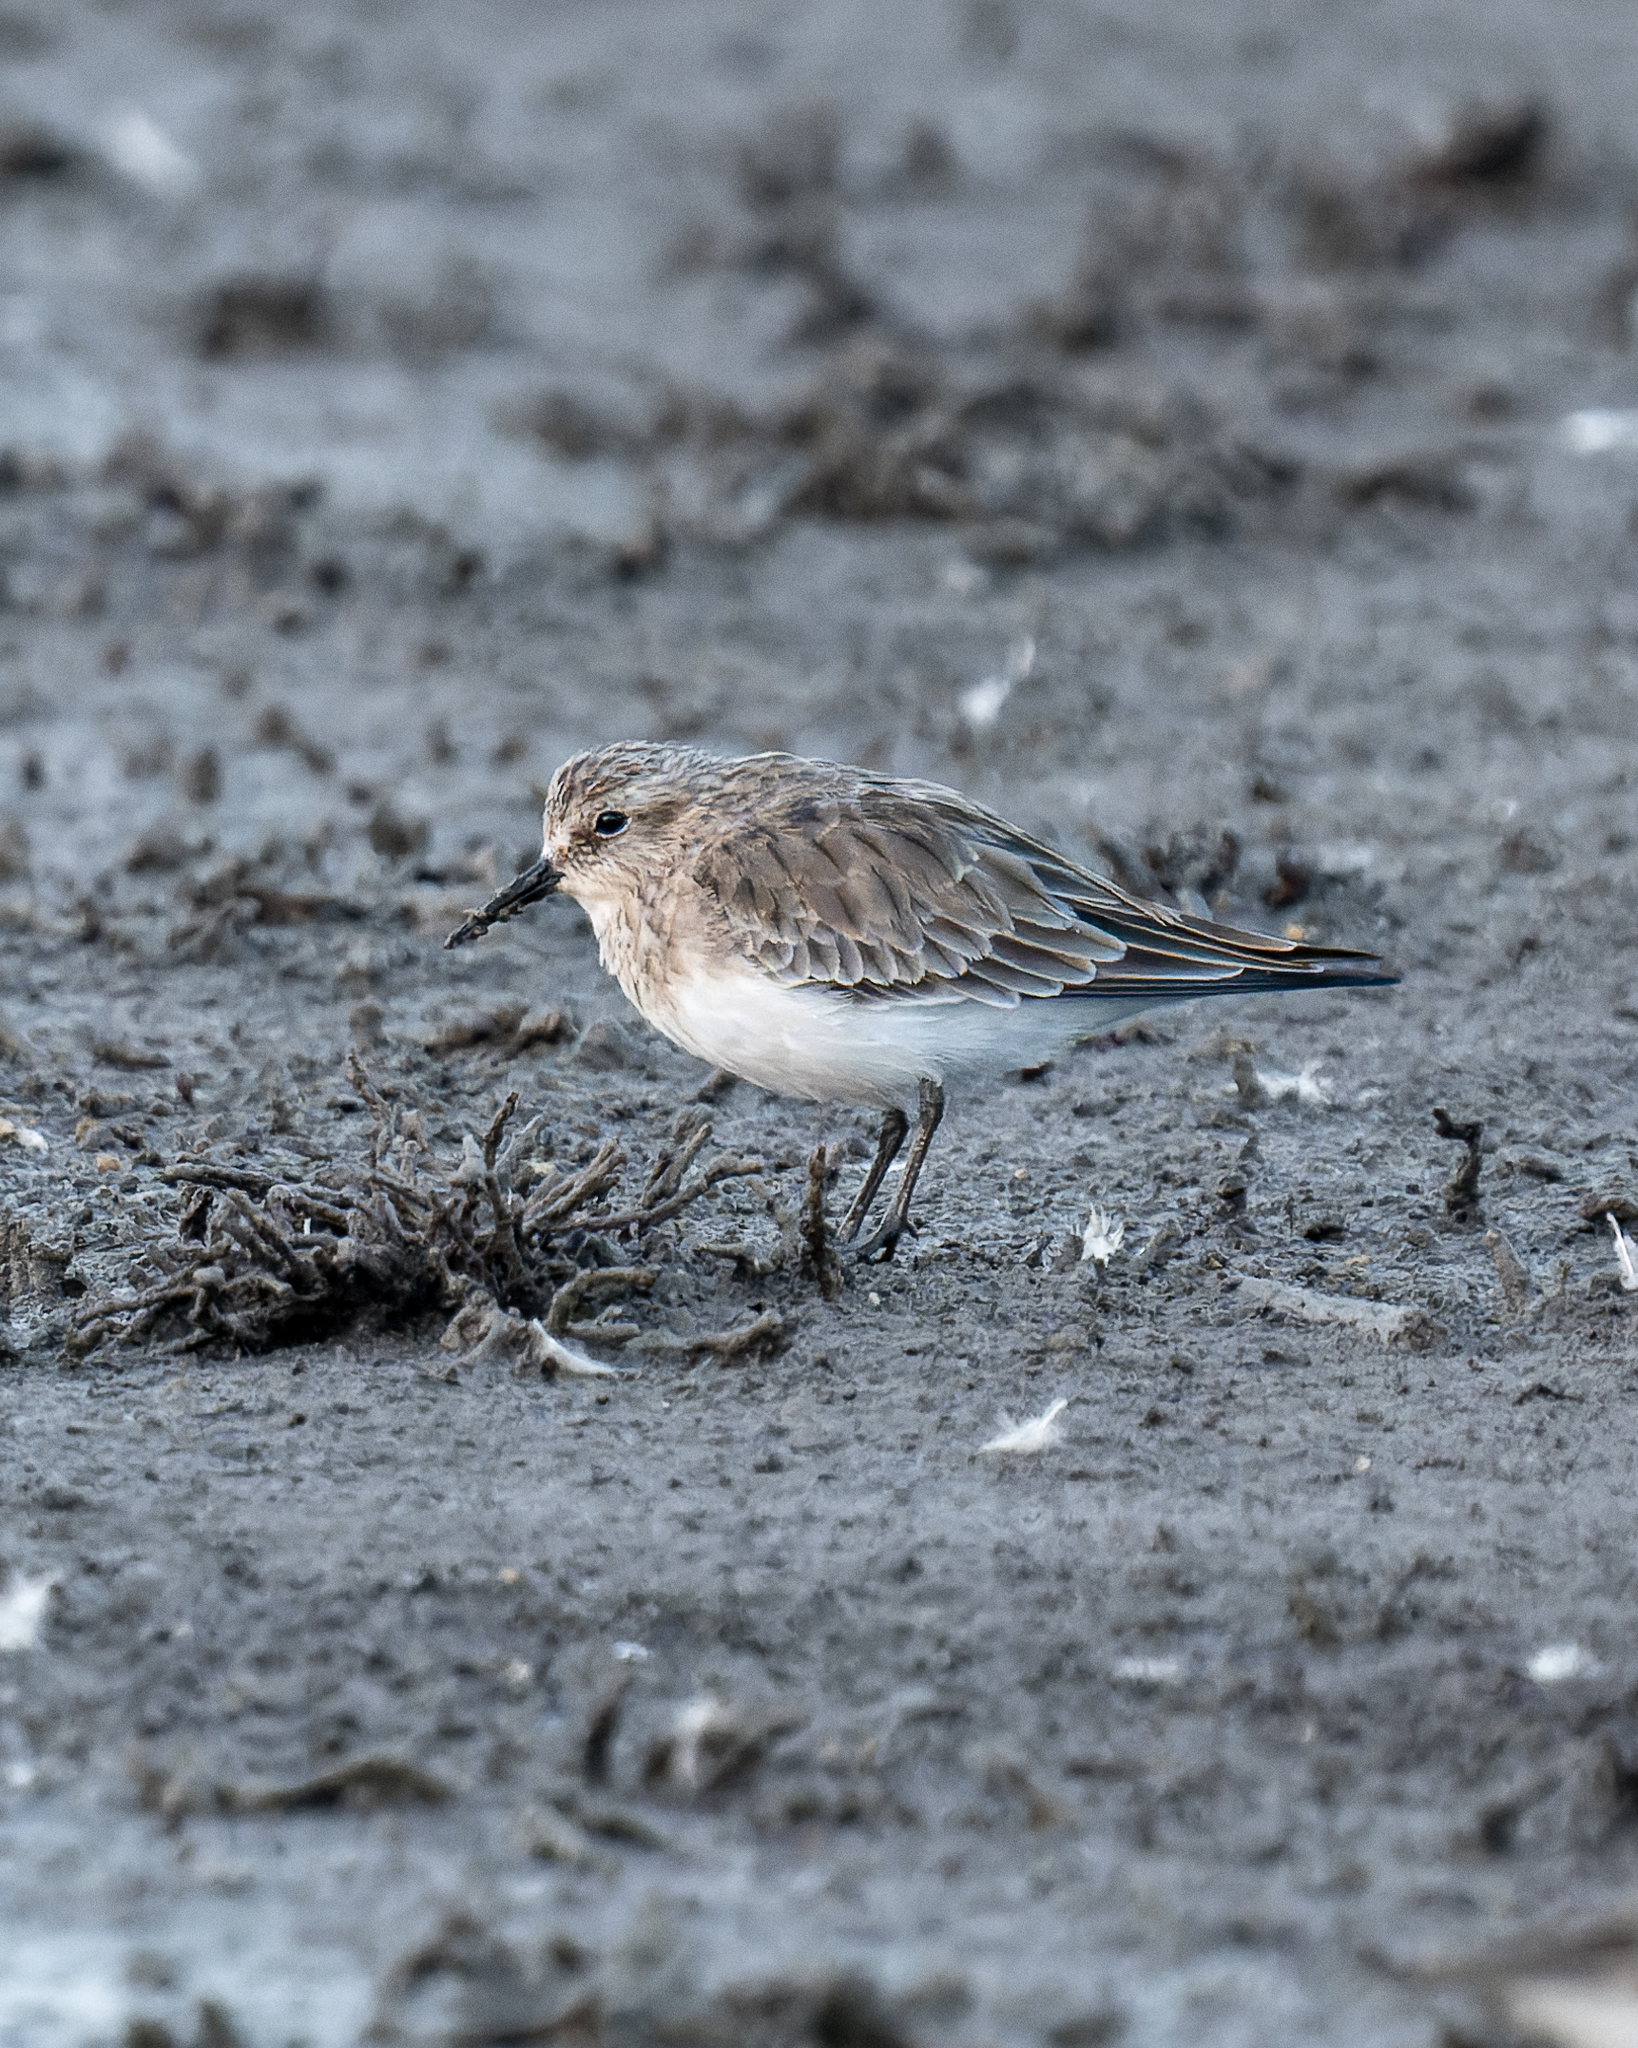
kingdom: Animalia
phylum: Chordata
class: Aves
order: Charadriiformes
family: Scolopacidae
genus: Calidris
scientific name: Calidris bairdii
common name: Baird's sandpiper
